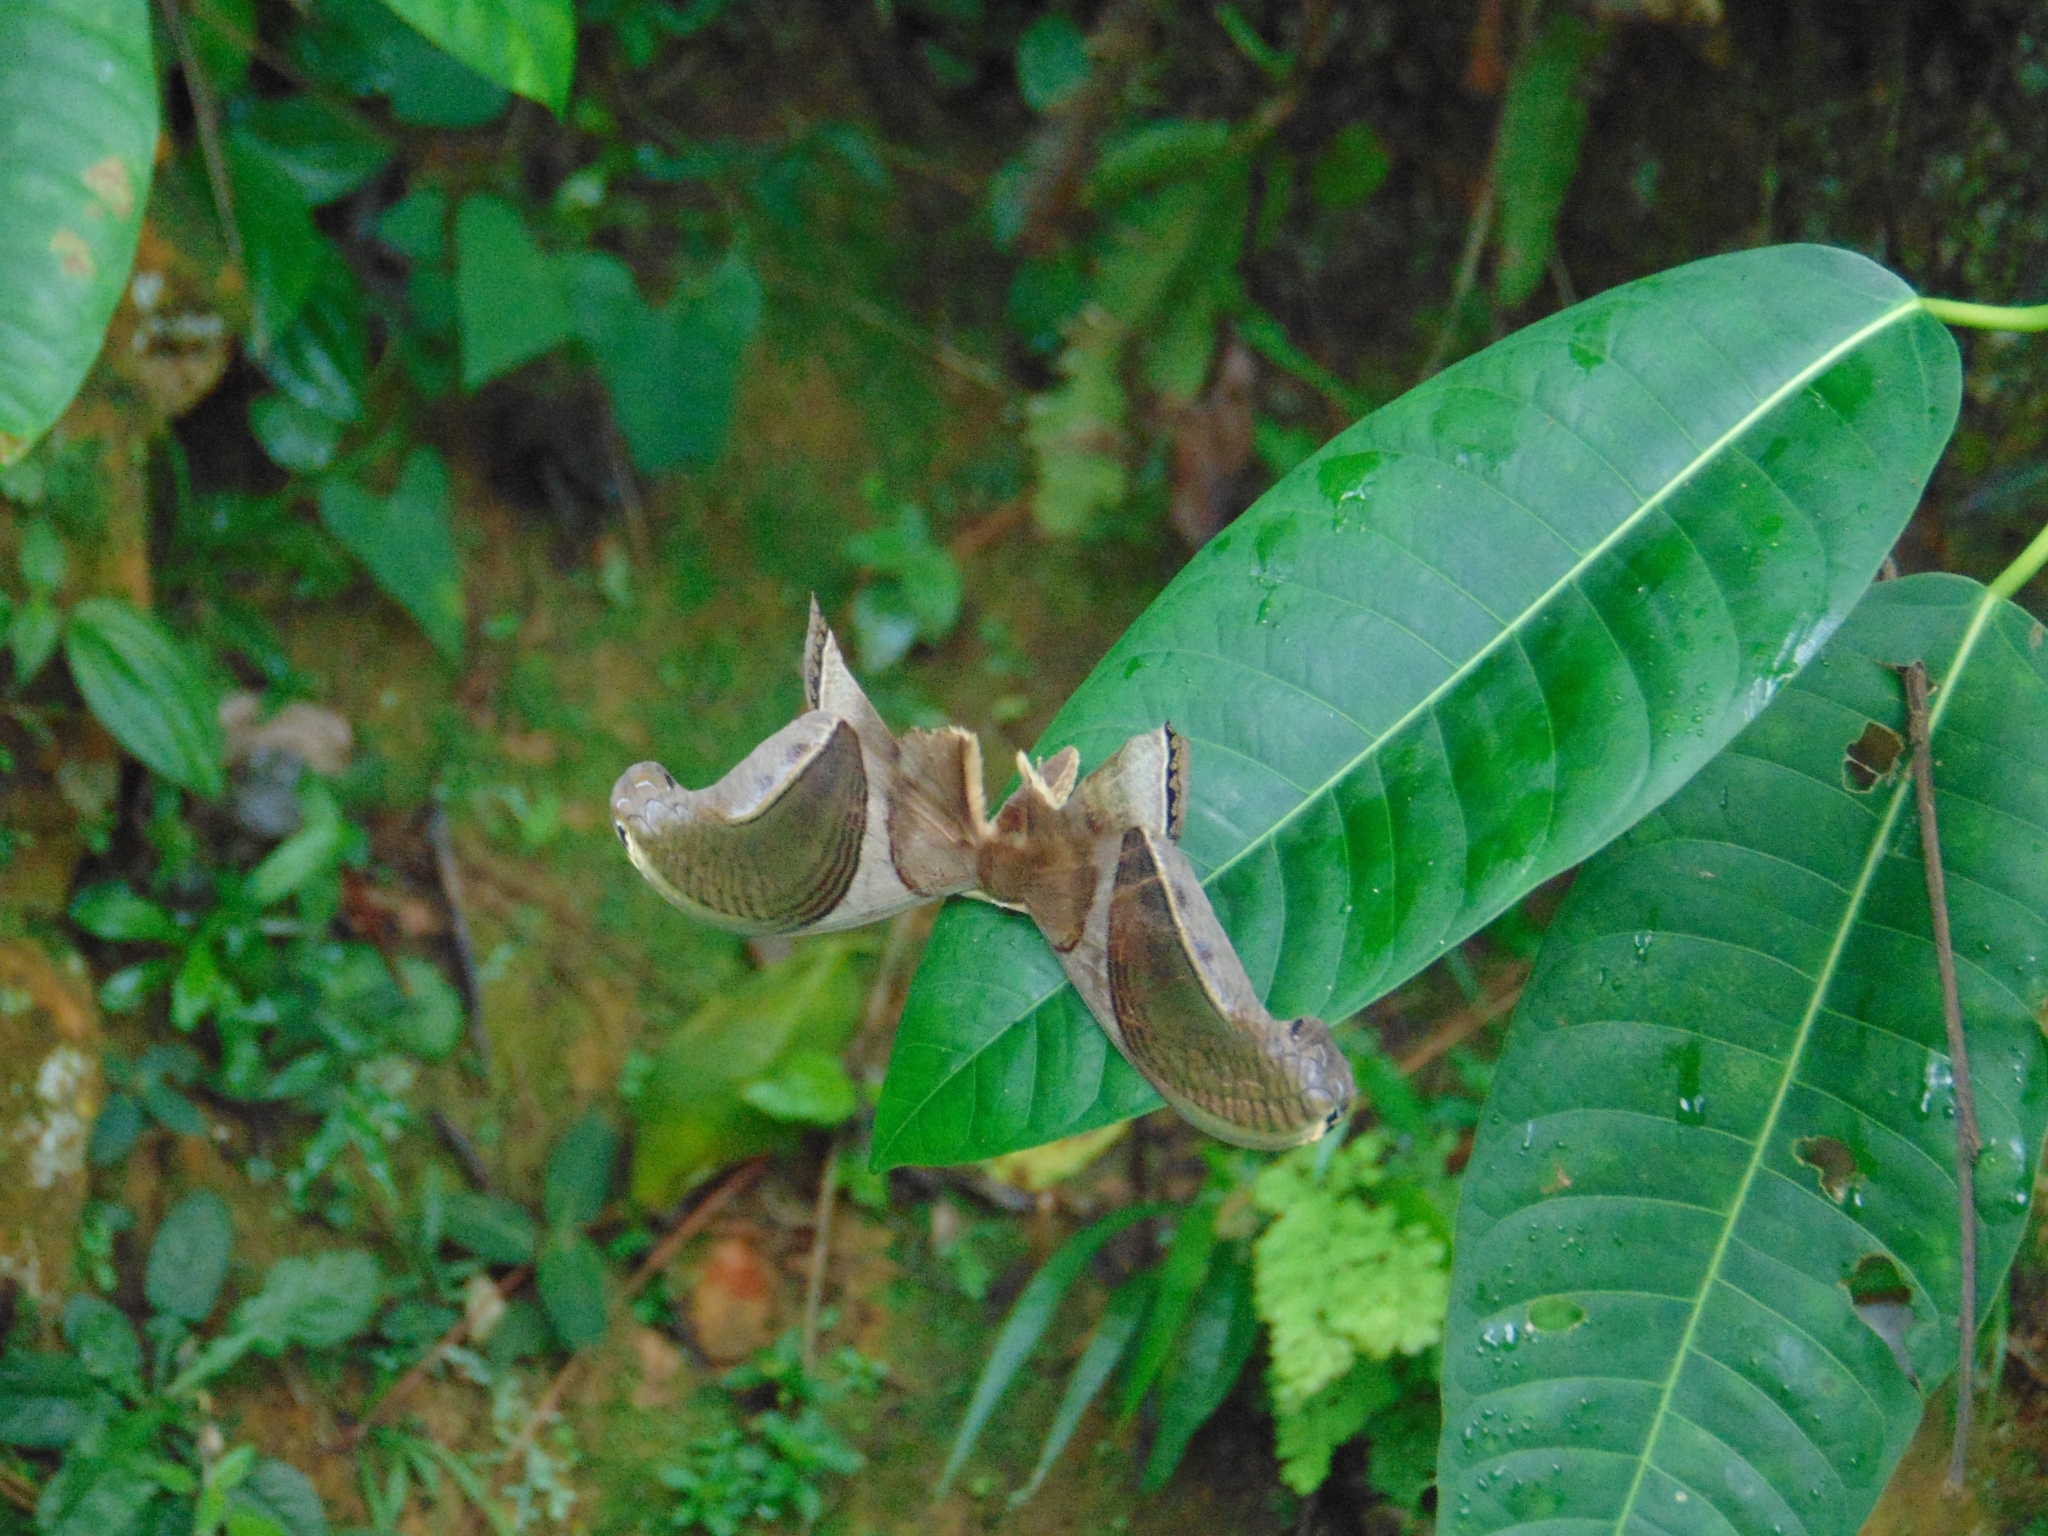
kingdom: Animalia
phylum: Arthropoda
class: Insecta
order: Lepidoptera
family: Saturniidae
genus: Rhescyntis
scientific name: Rhescyntis pseudomartii
